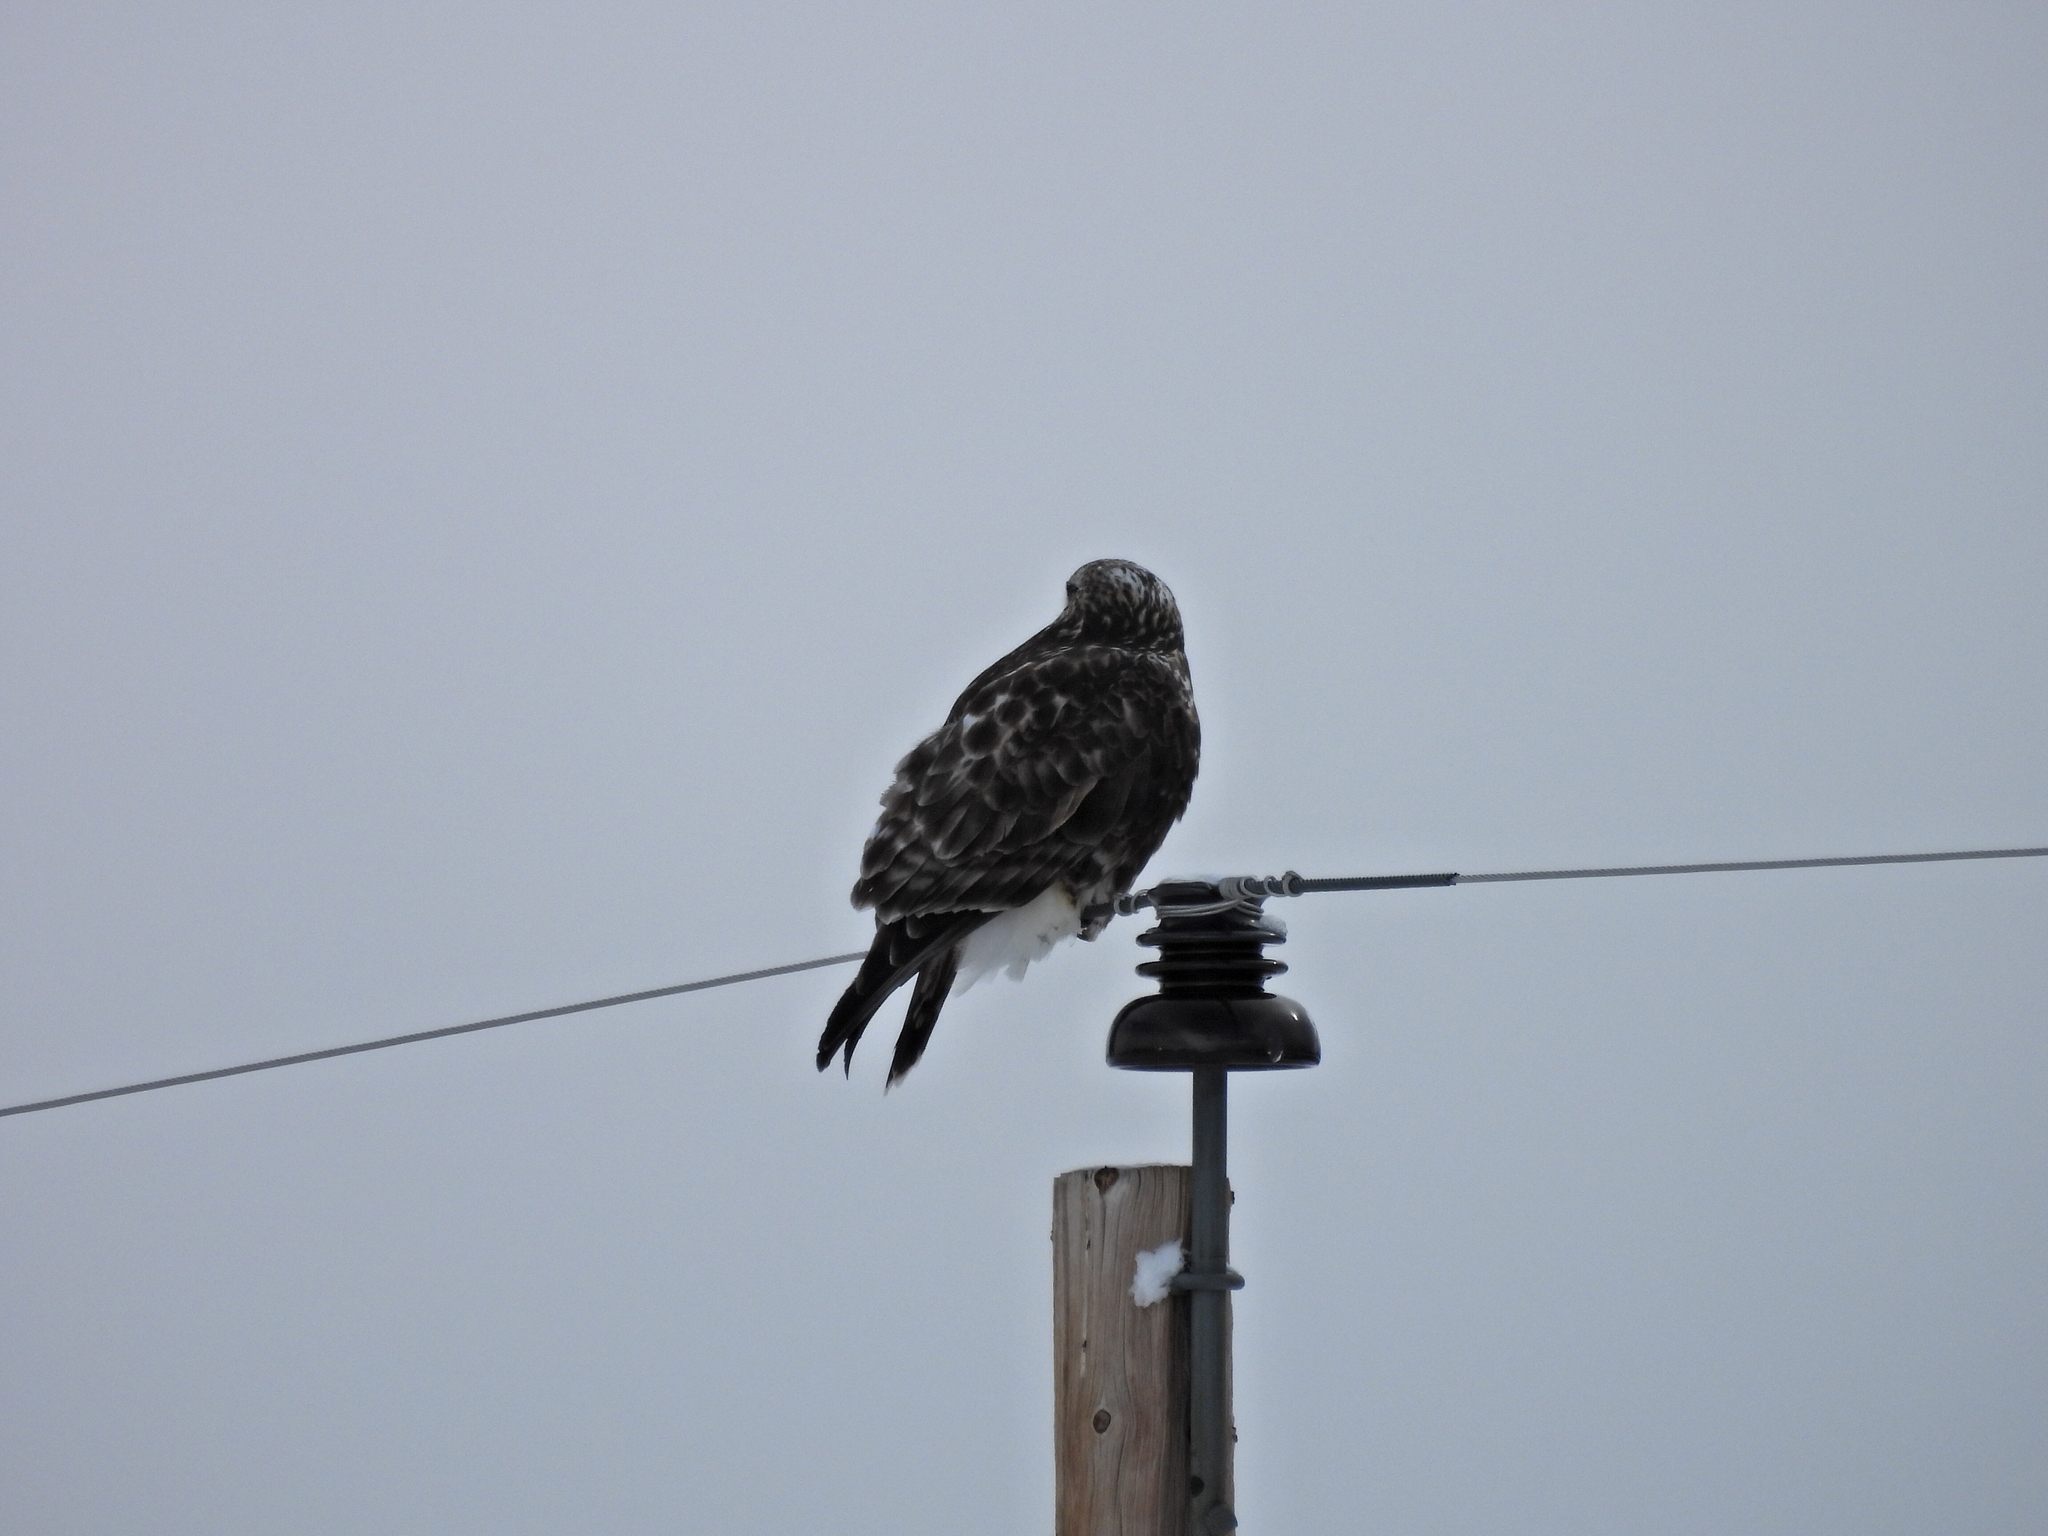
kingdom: Animalia
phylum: Chordata
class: Aves
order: Accipitriformes
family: Accipitridae
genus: Buteo
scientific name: Buteo lagopus
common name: Rough-legged buzzard
